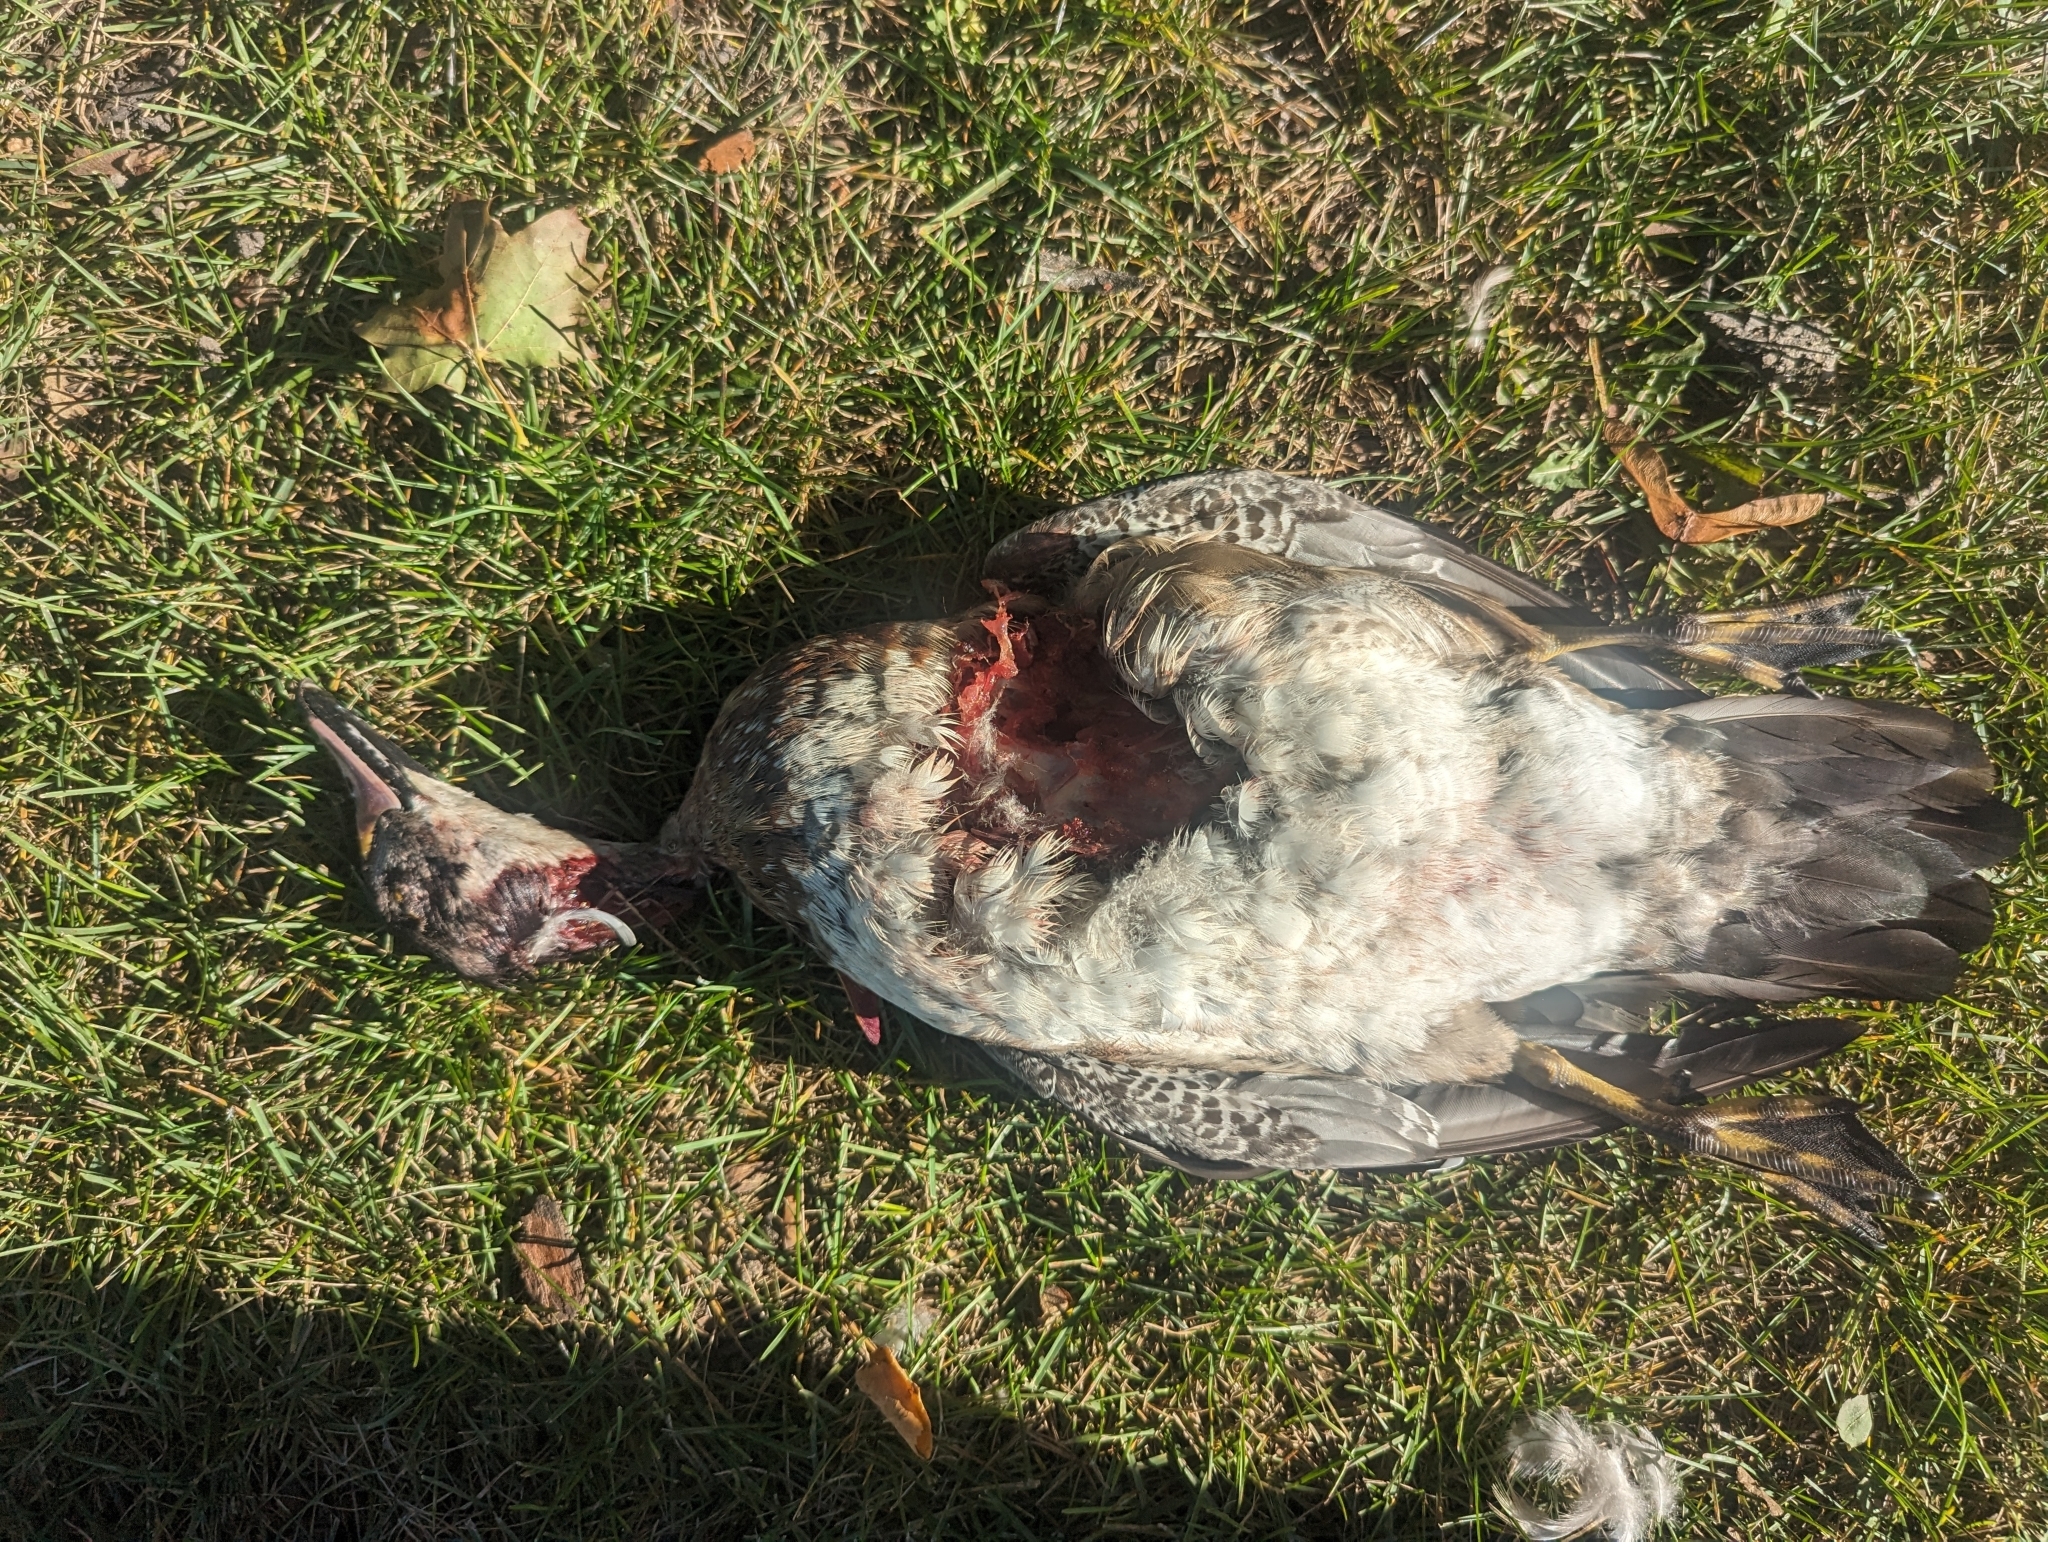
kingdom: Animalia
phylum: Chordata
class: Aves
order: Anseriformes
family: Anatidae
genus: Aix
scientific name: Aix sponsa
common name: Wood duck
